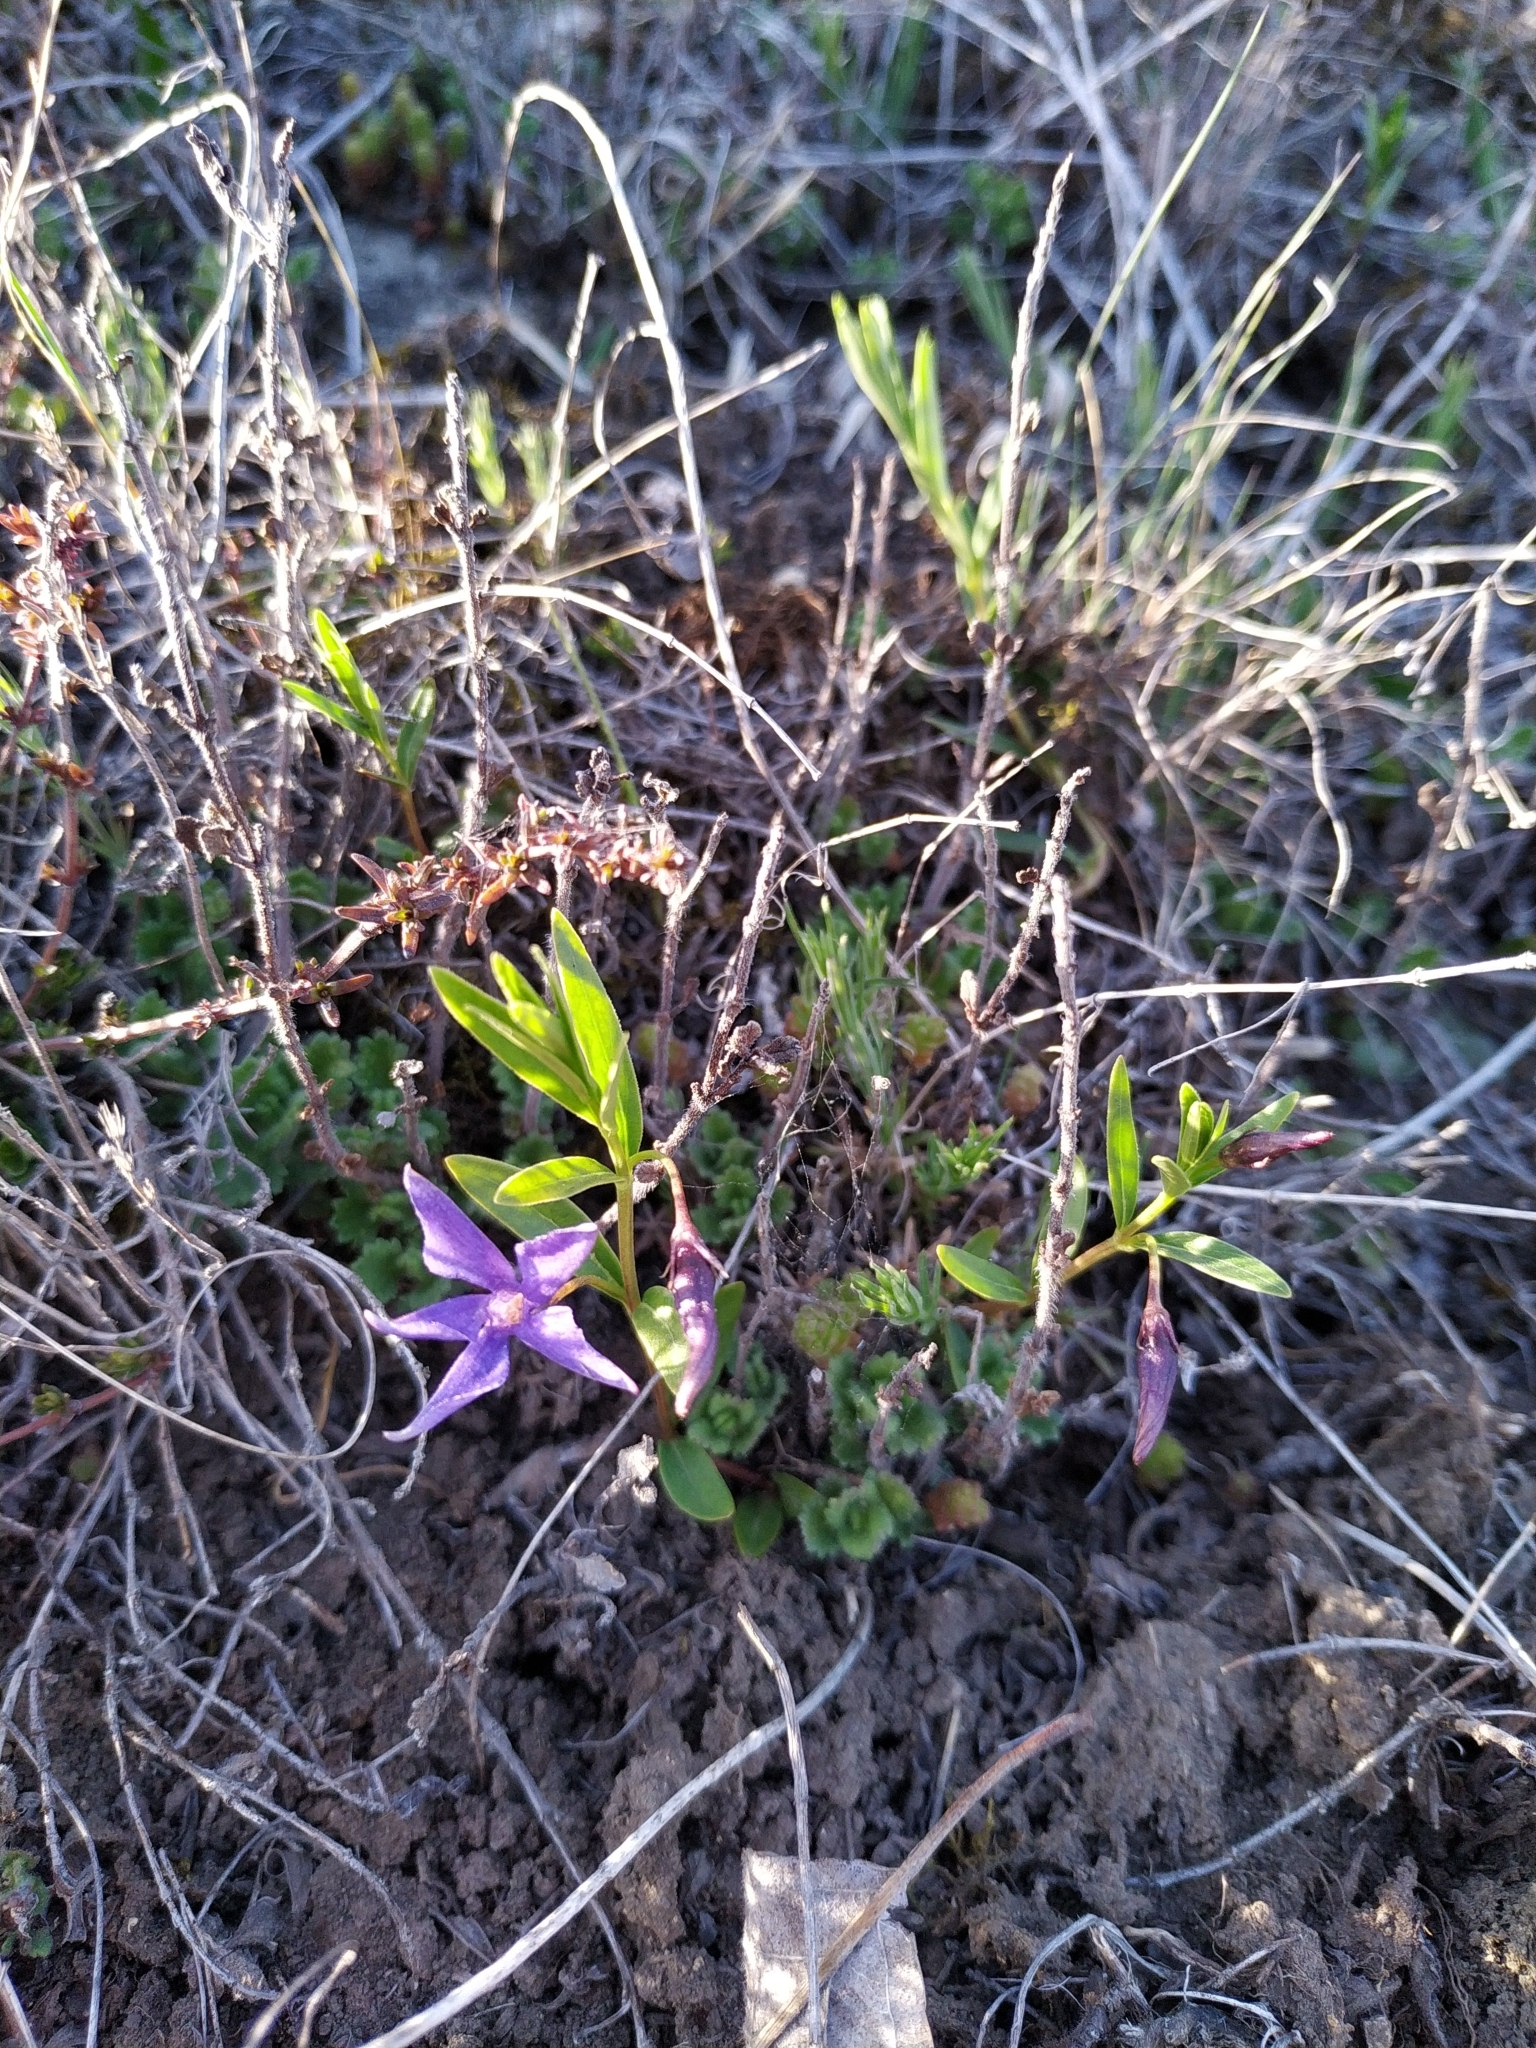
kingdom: Plantae
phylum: Tracheophyta
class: Magnoliopsida
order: Gentianales
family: Apocynaceae
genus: Vinca
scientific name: Vinca herbacea
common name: Herbaceous periwinkle
